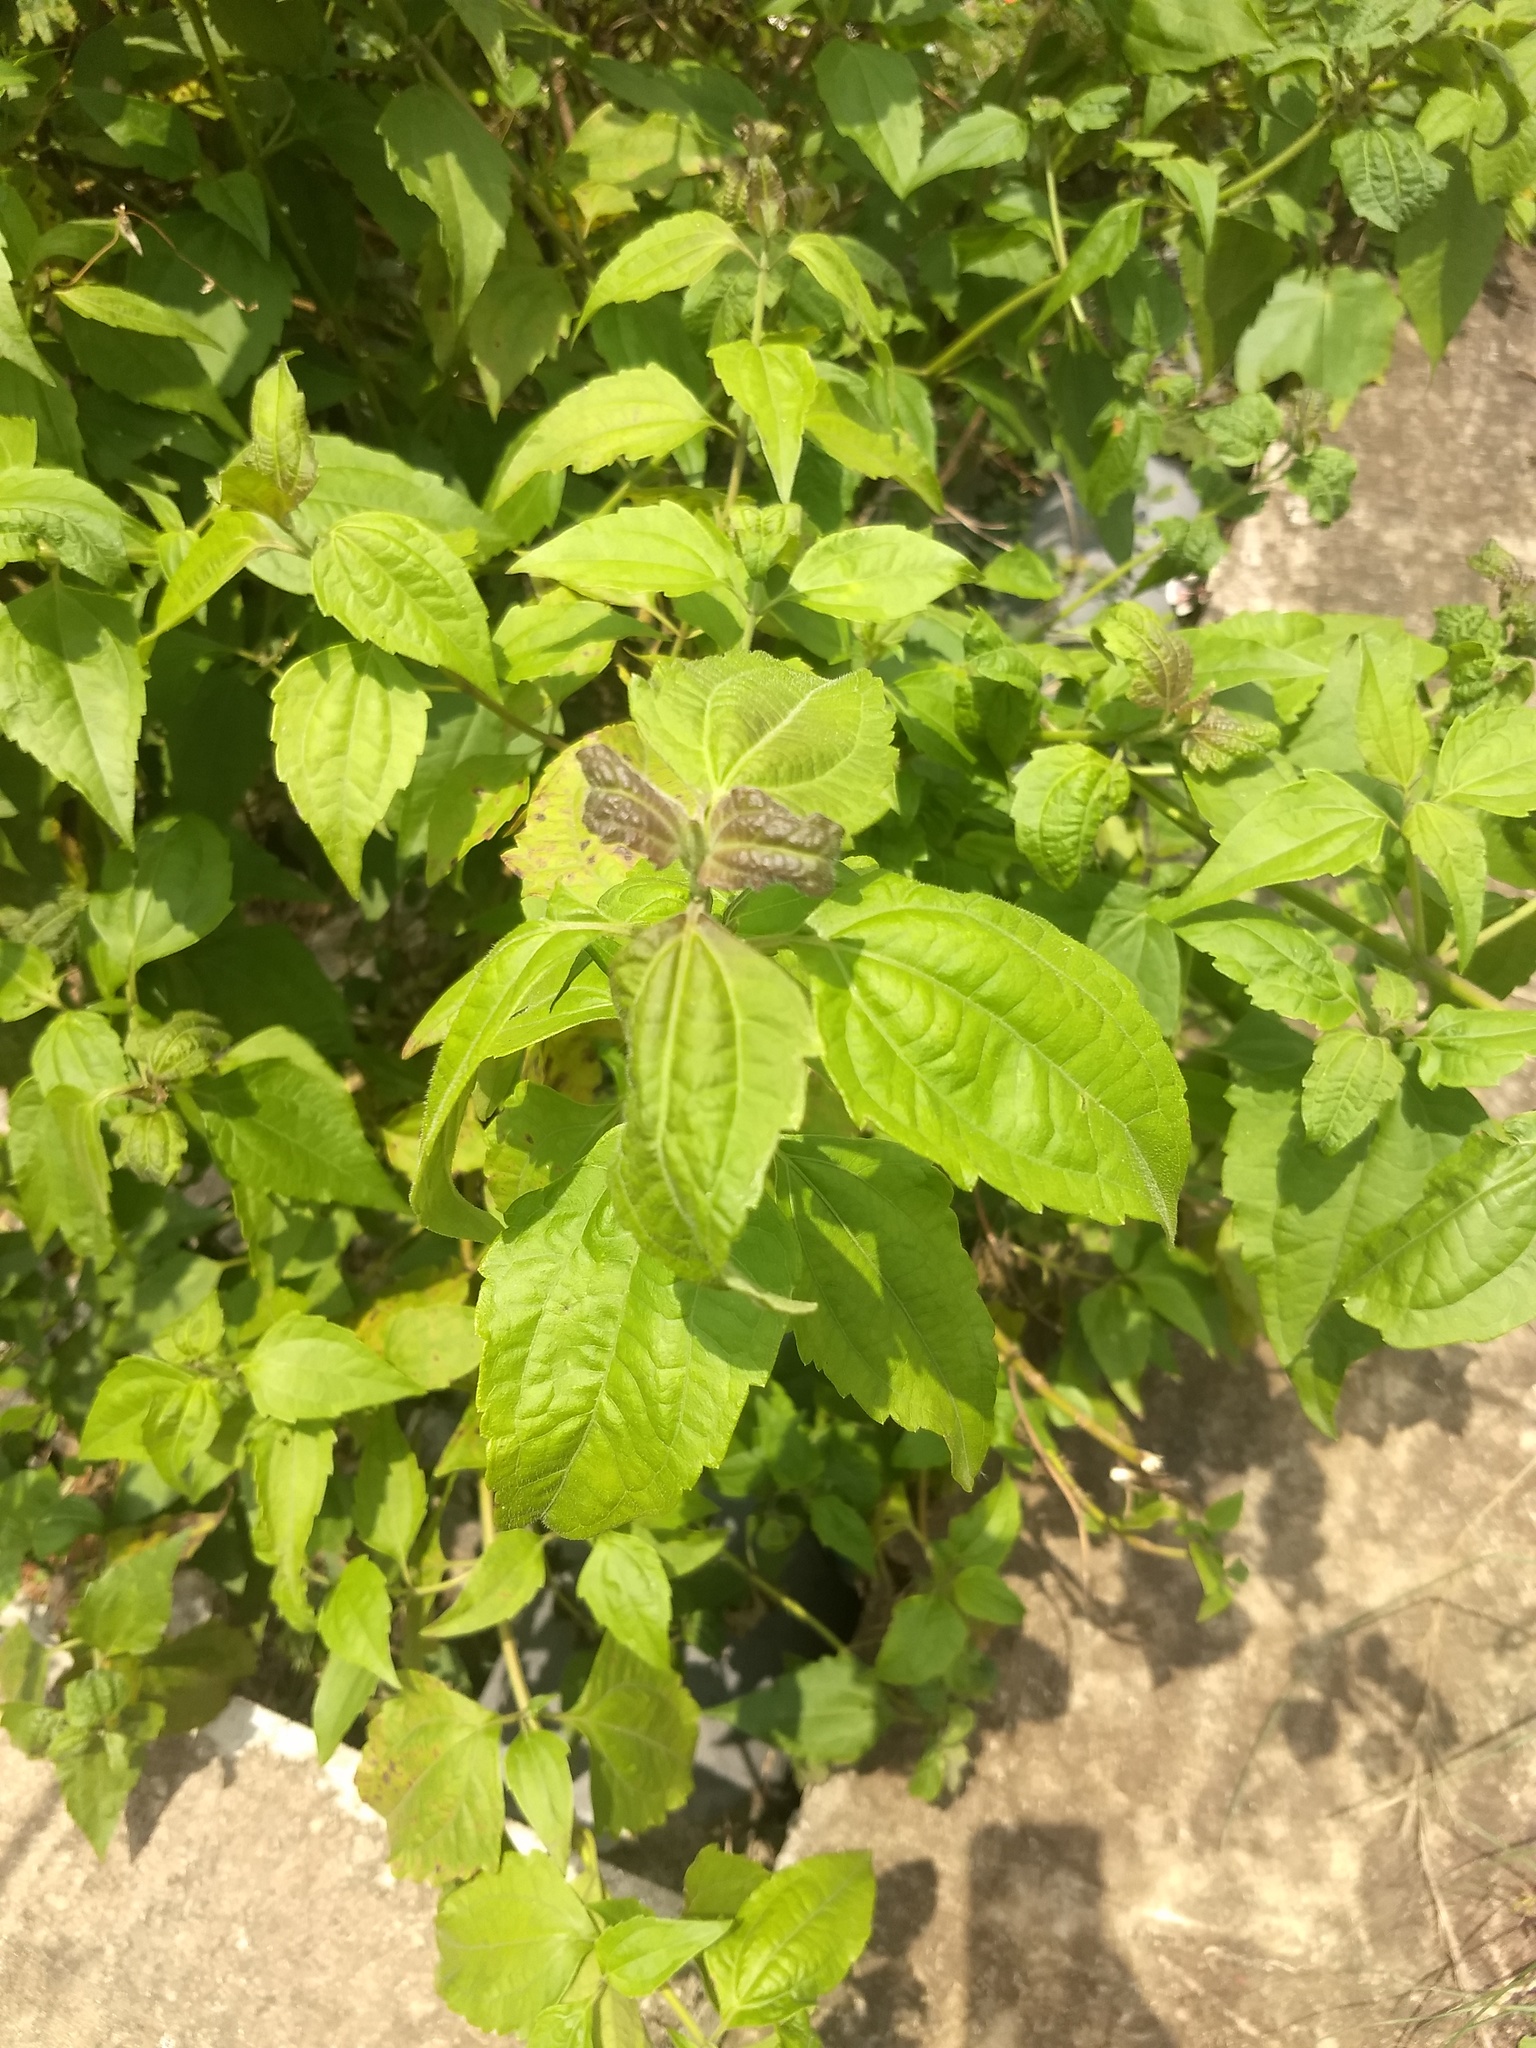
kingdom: Plantae
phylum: Tracheophyta
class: Magnoliopsida
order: Asterales
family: Asteraceae
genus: Chromolaena
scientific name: Chromolaena odorata
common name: Siamweed
